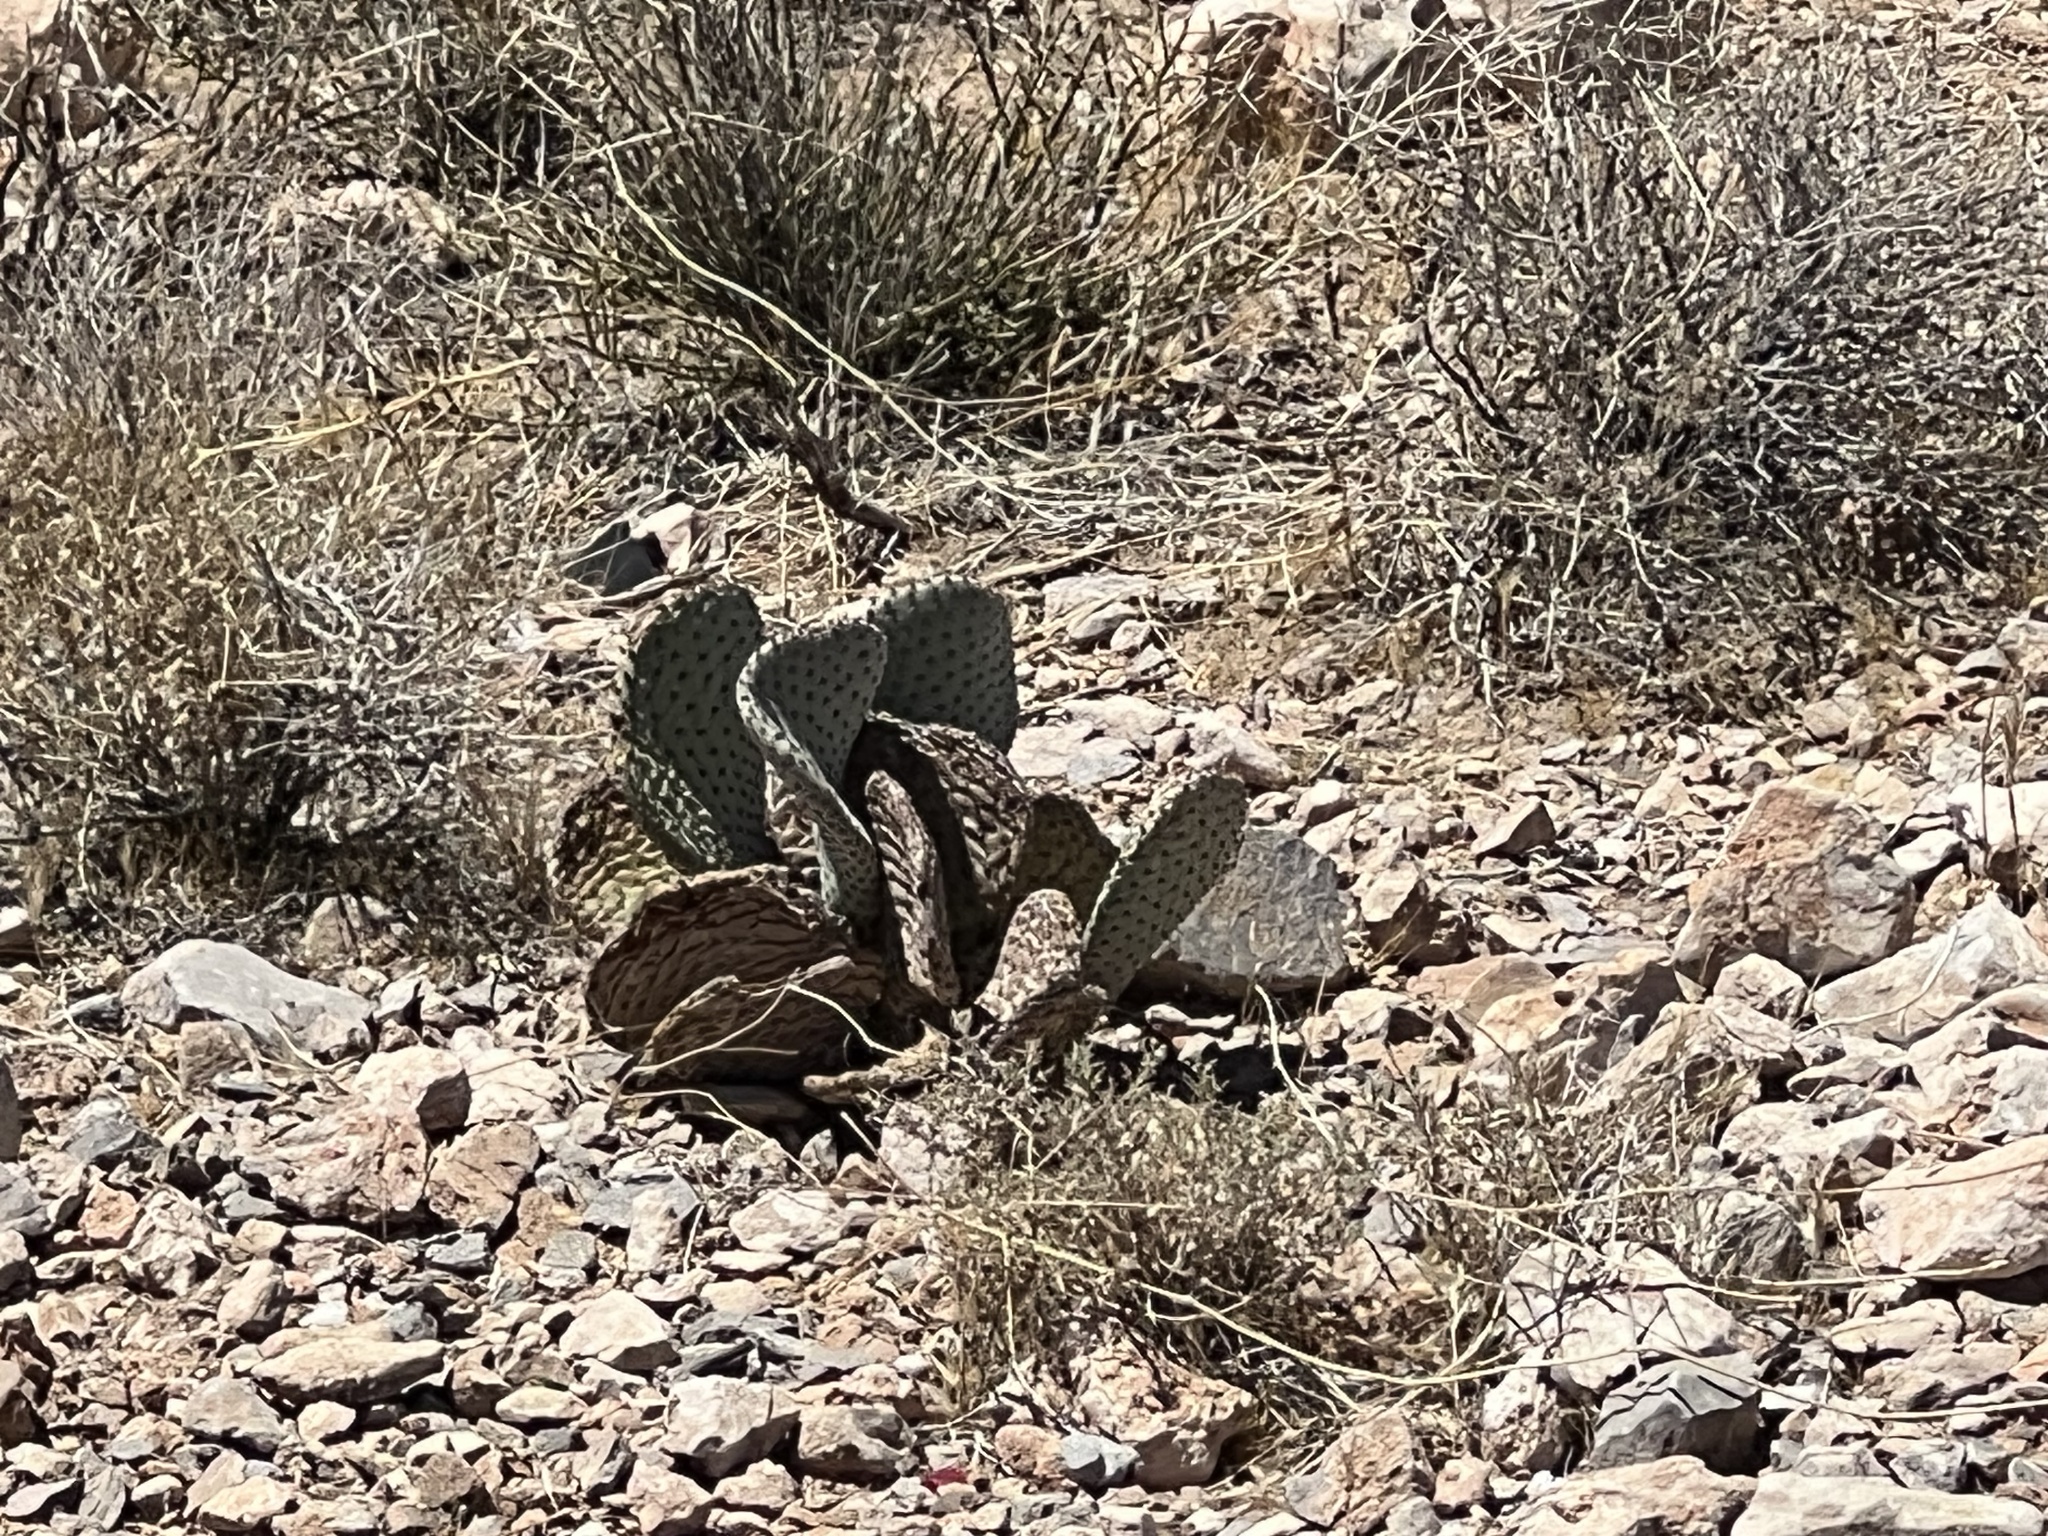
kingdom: Plantae
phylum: Tracheophyta
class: Magnoliopsida
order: Caryophyllales
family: Cactaceae
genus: Opuntia
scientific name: Opuntia basilaris
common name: Beavertail prickly-pear
